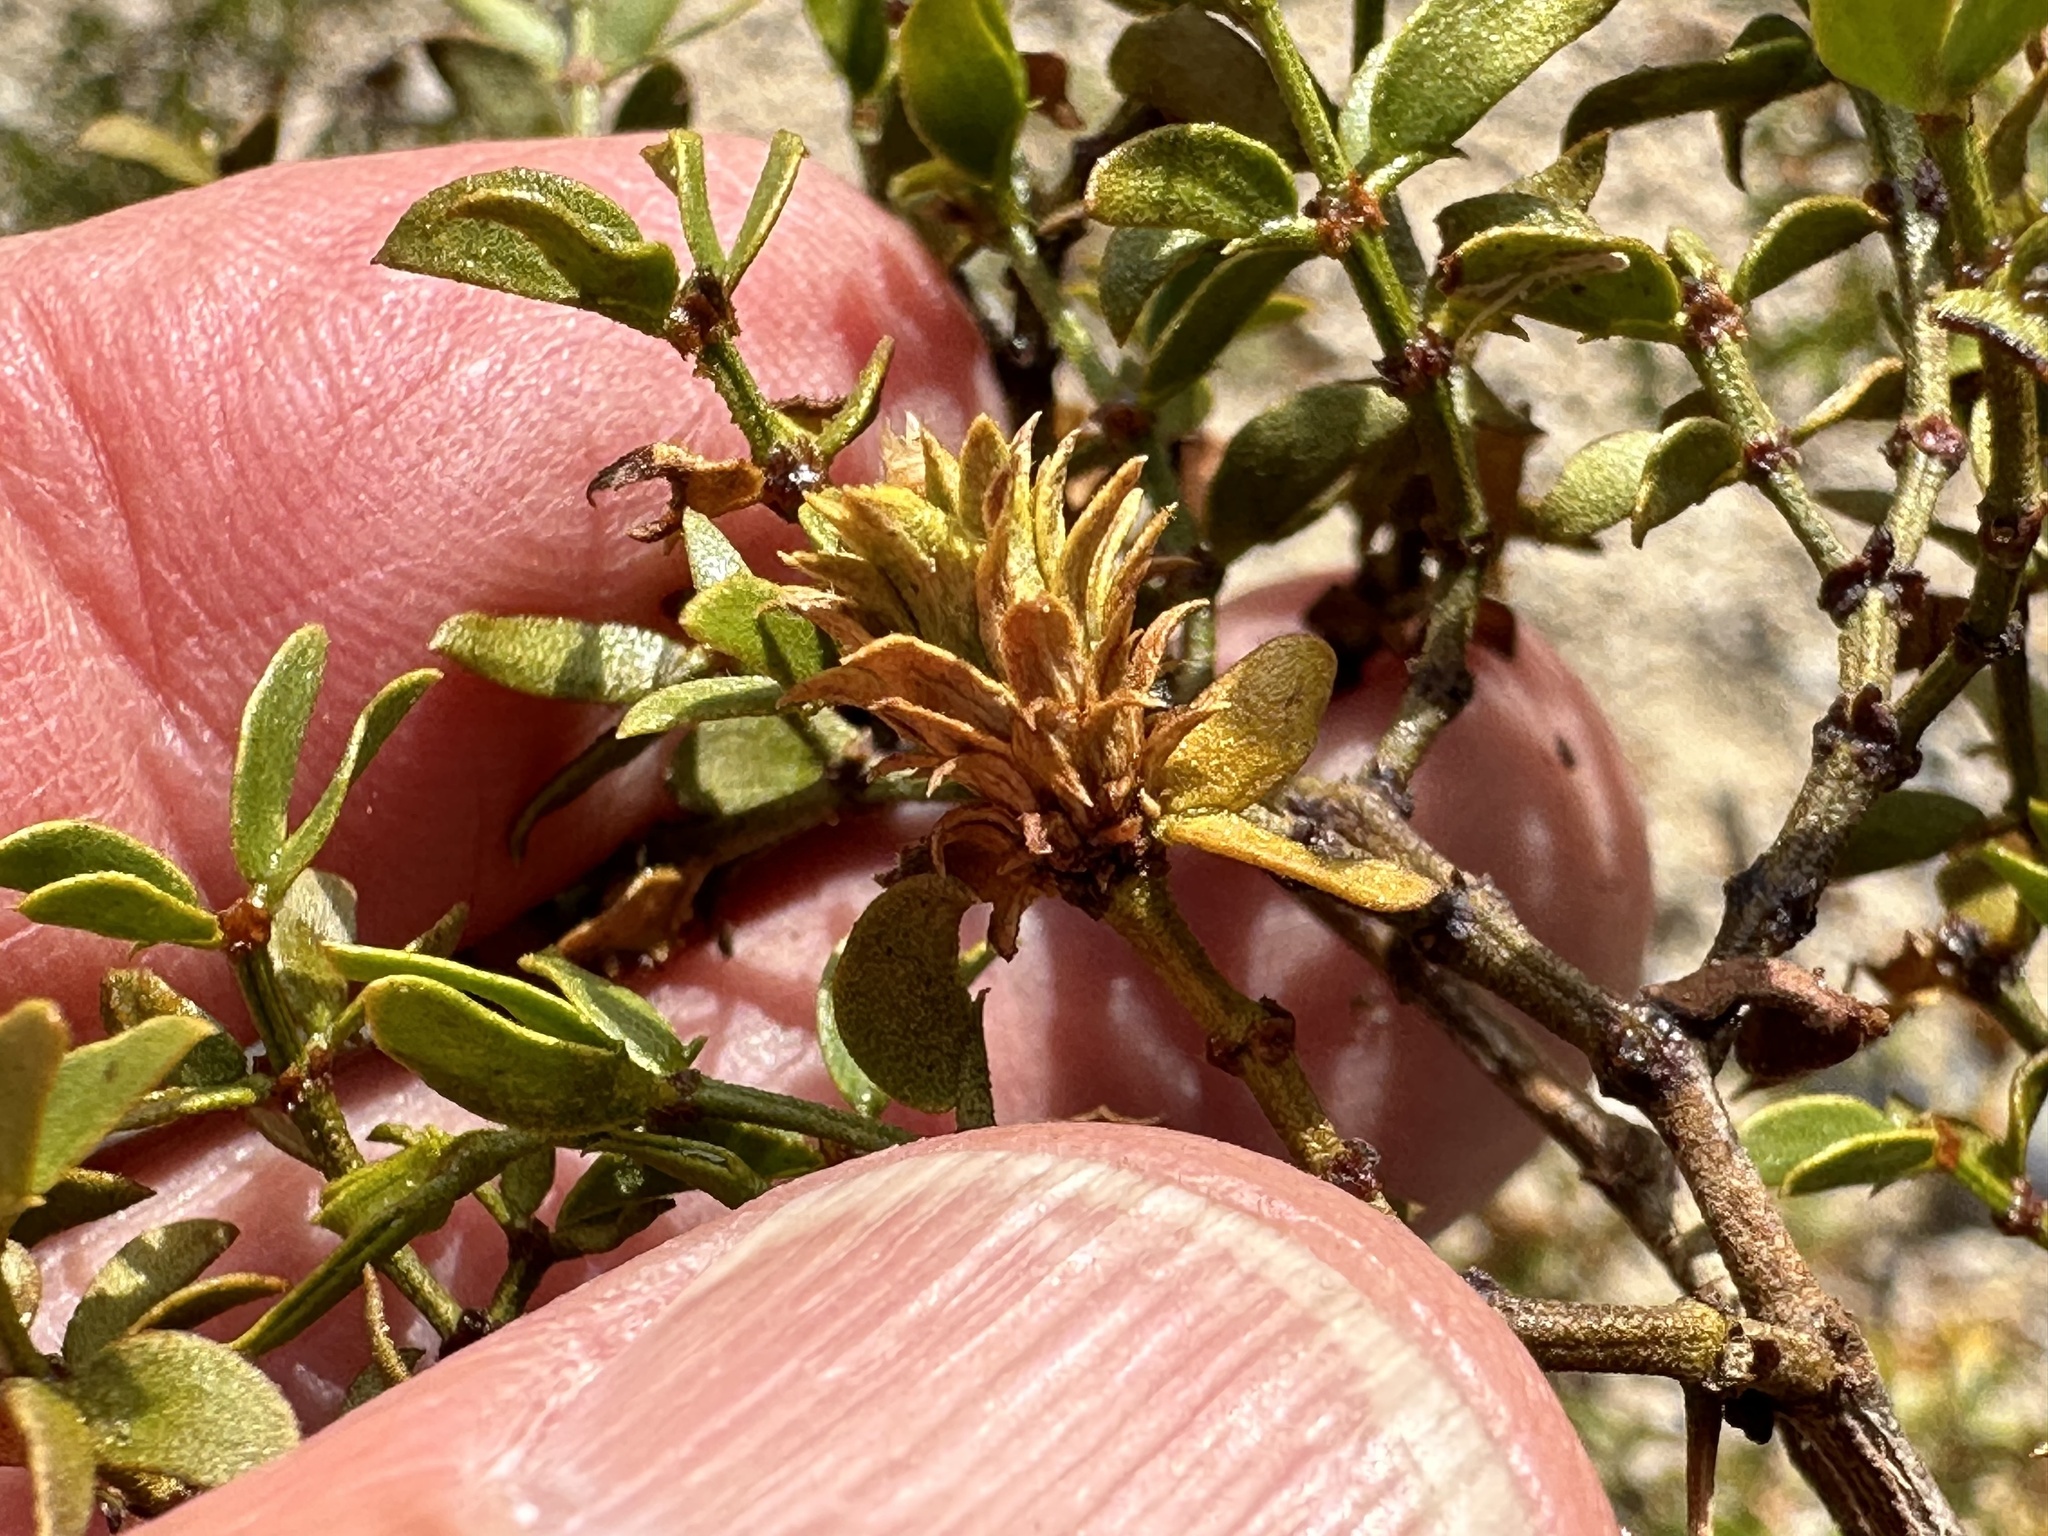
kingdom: Animalia
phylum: Arthropoda
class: Insecta
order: Diptera
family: Cecidomyiidae
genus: Asphondylia
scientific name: Asphondylia rosetta
